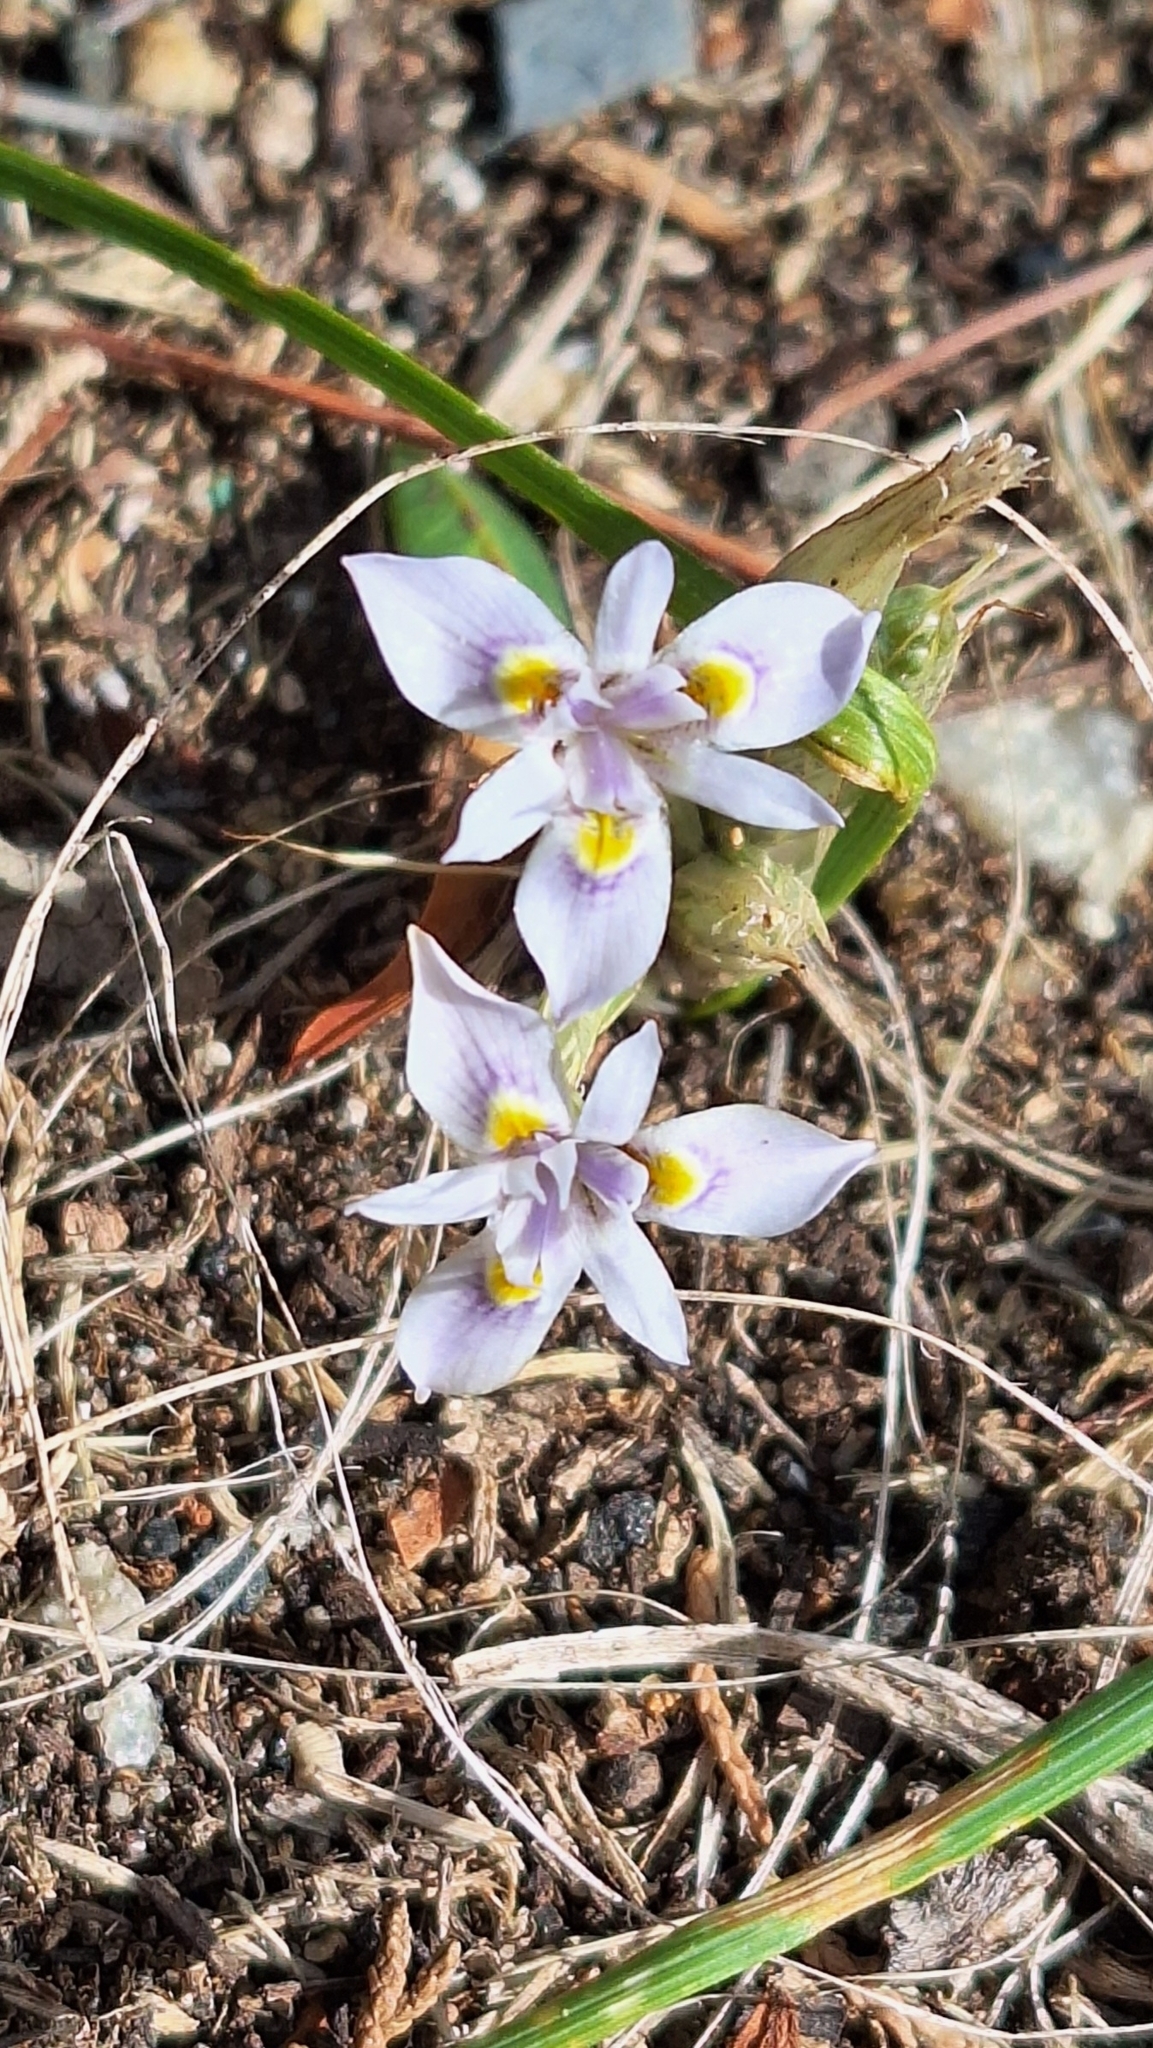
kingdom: Plantae
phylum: Tracheophyta
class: Liliopsida
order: Asparagales
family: Iridaceae
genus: Moraea
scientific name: Moraea setifolia
